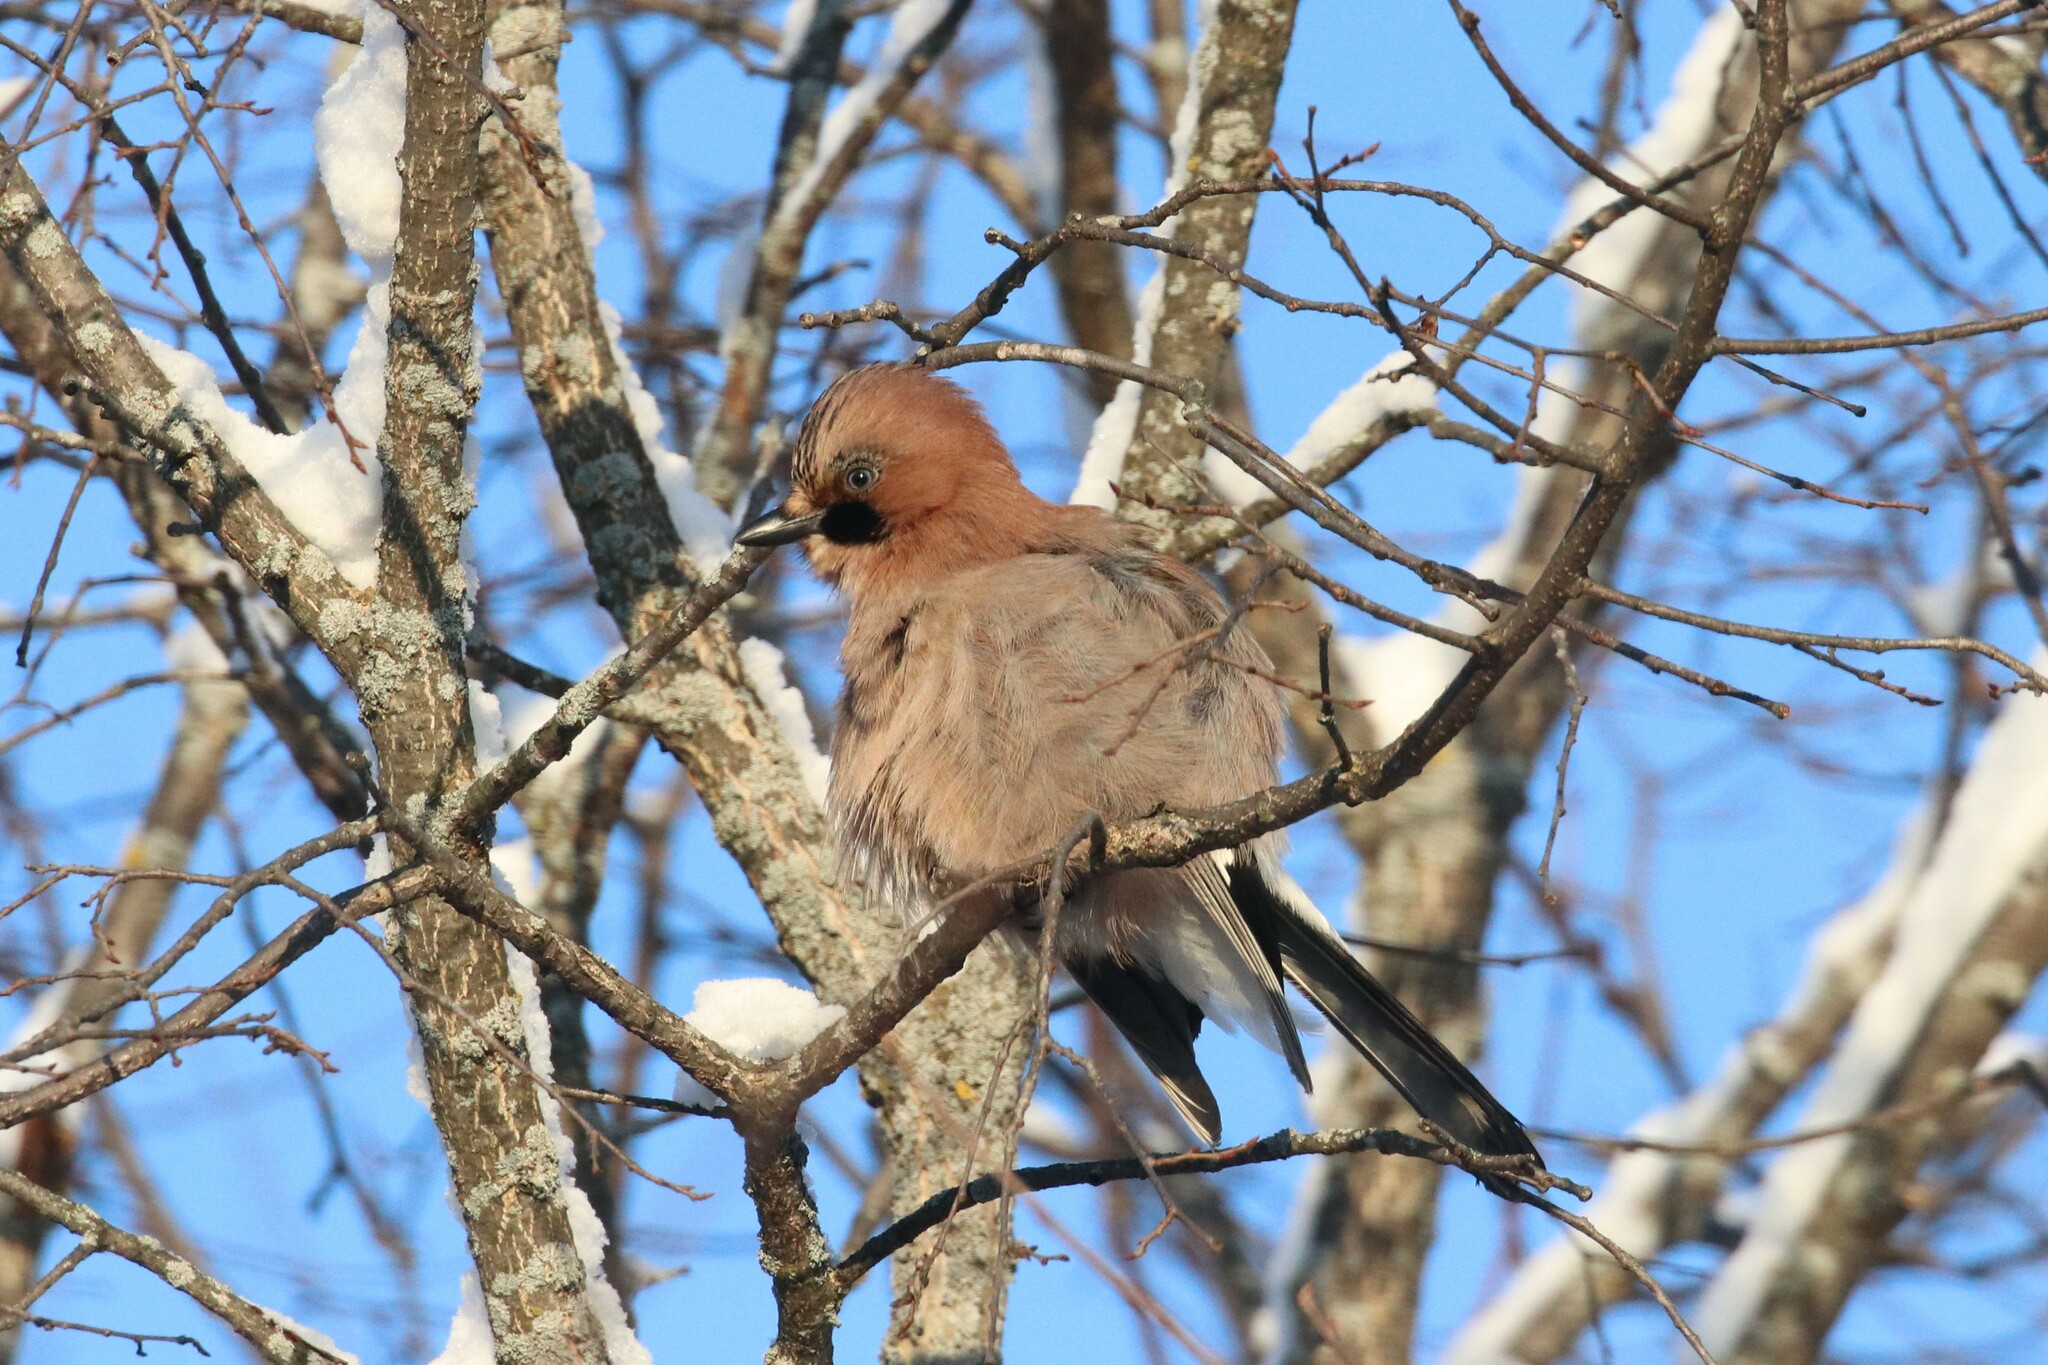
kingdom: Animalia
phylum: Chordata
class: Aves
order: Passeriformes
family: Corvidae
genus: Garrulus
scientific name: Garrulus glandarius
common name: Eurasian jay
